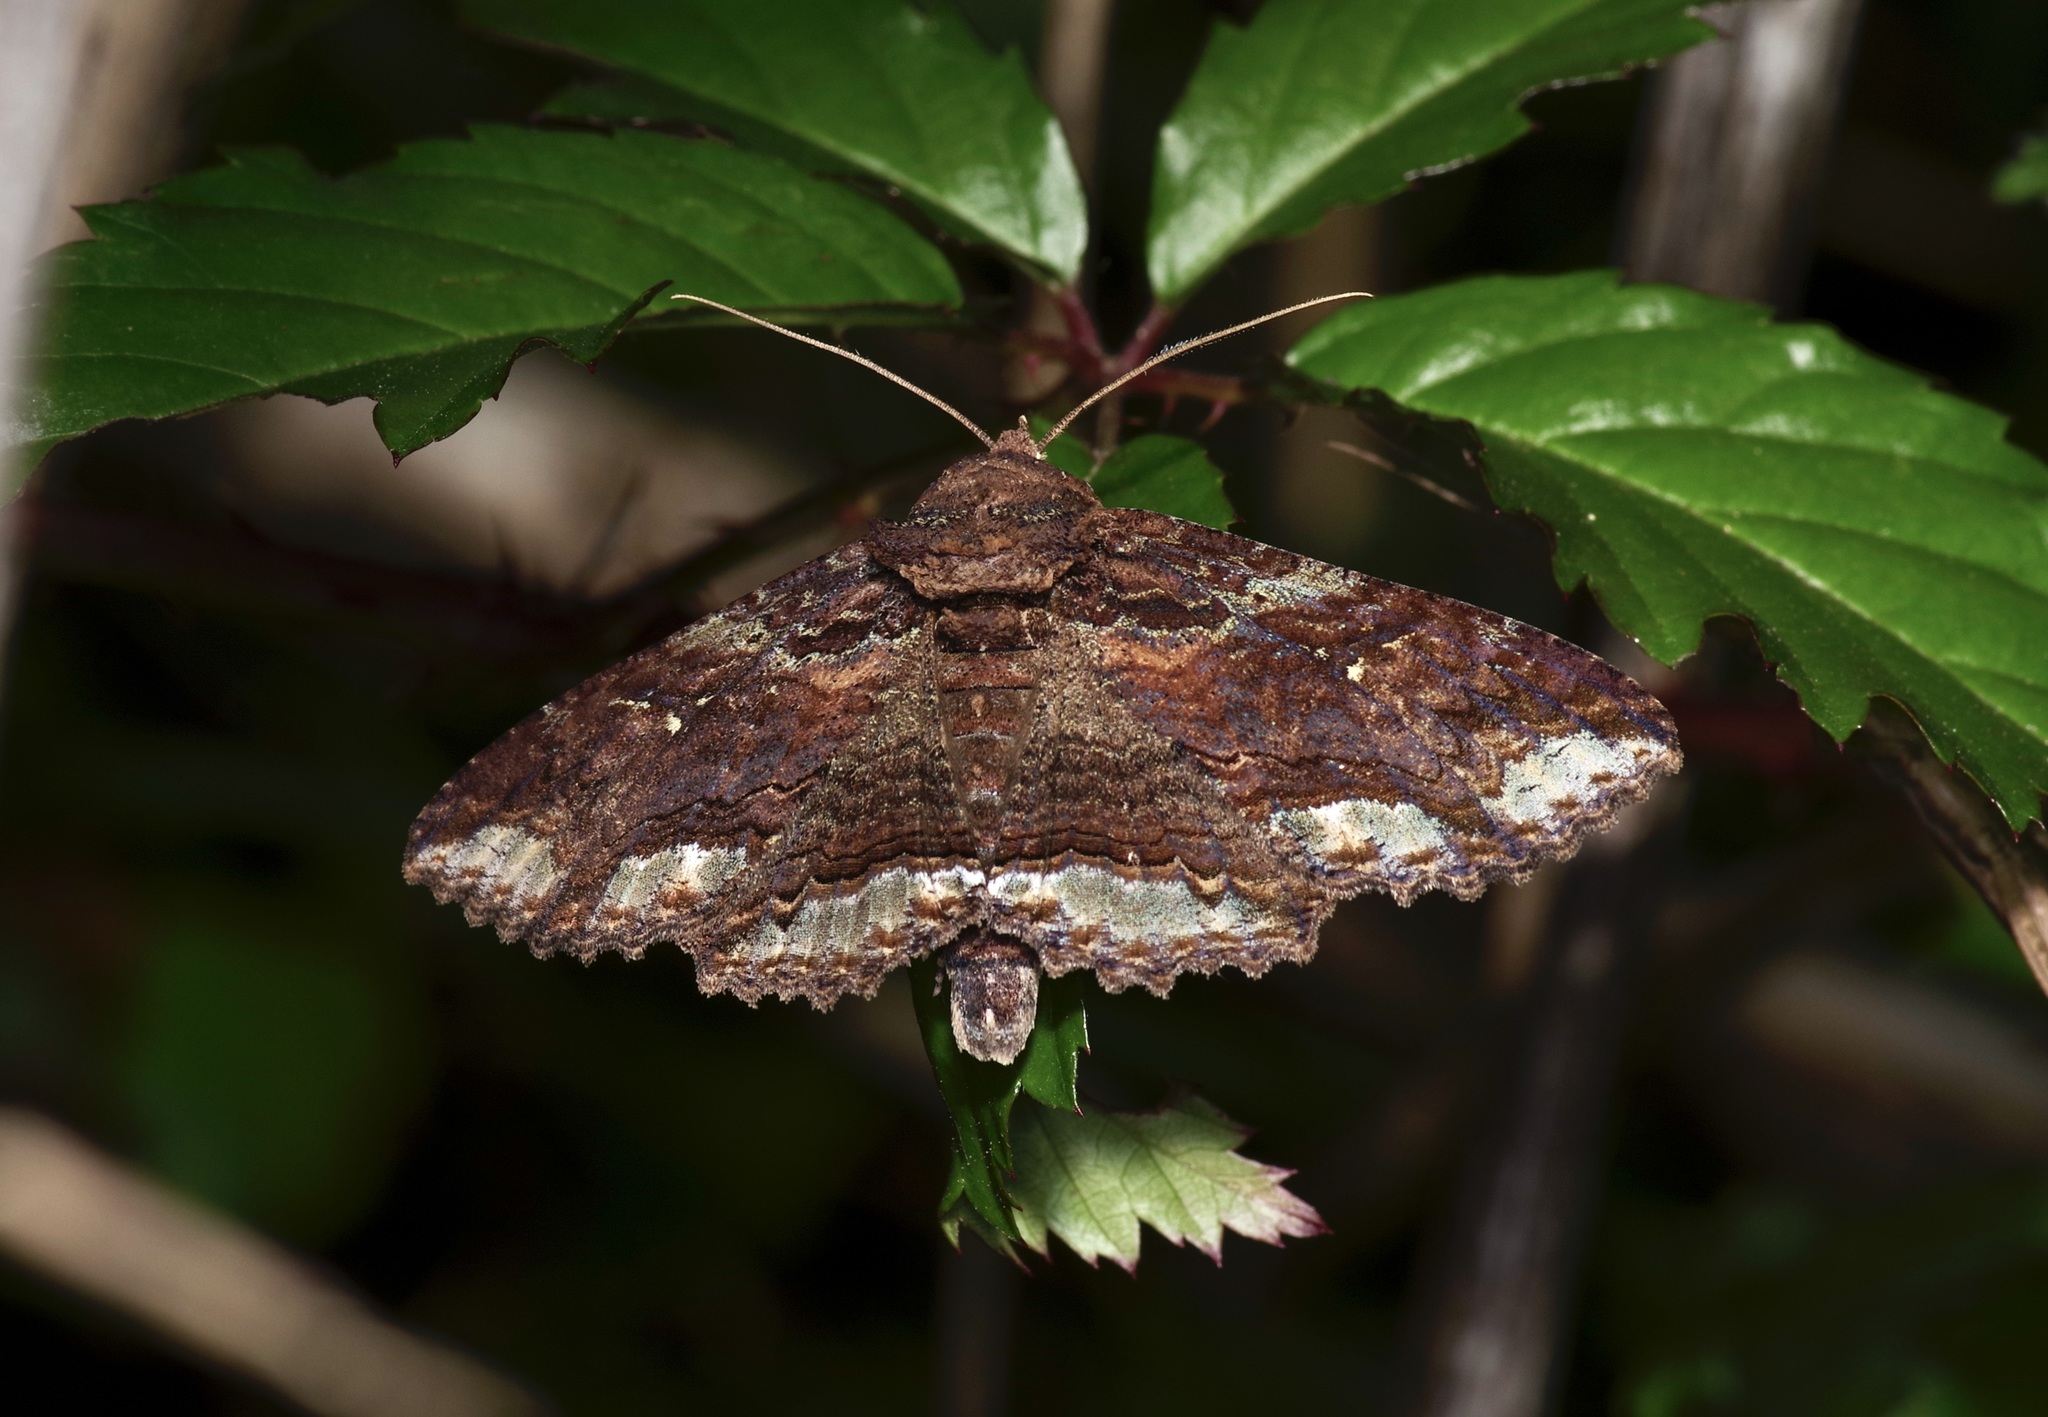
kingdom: Animalia
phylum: Arthropoda
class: Insecta
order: Lepidoptera
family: Erebidae
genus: Zale
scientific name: Zale lunata
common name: Lunate zale moth
